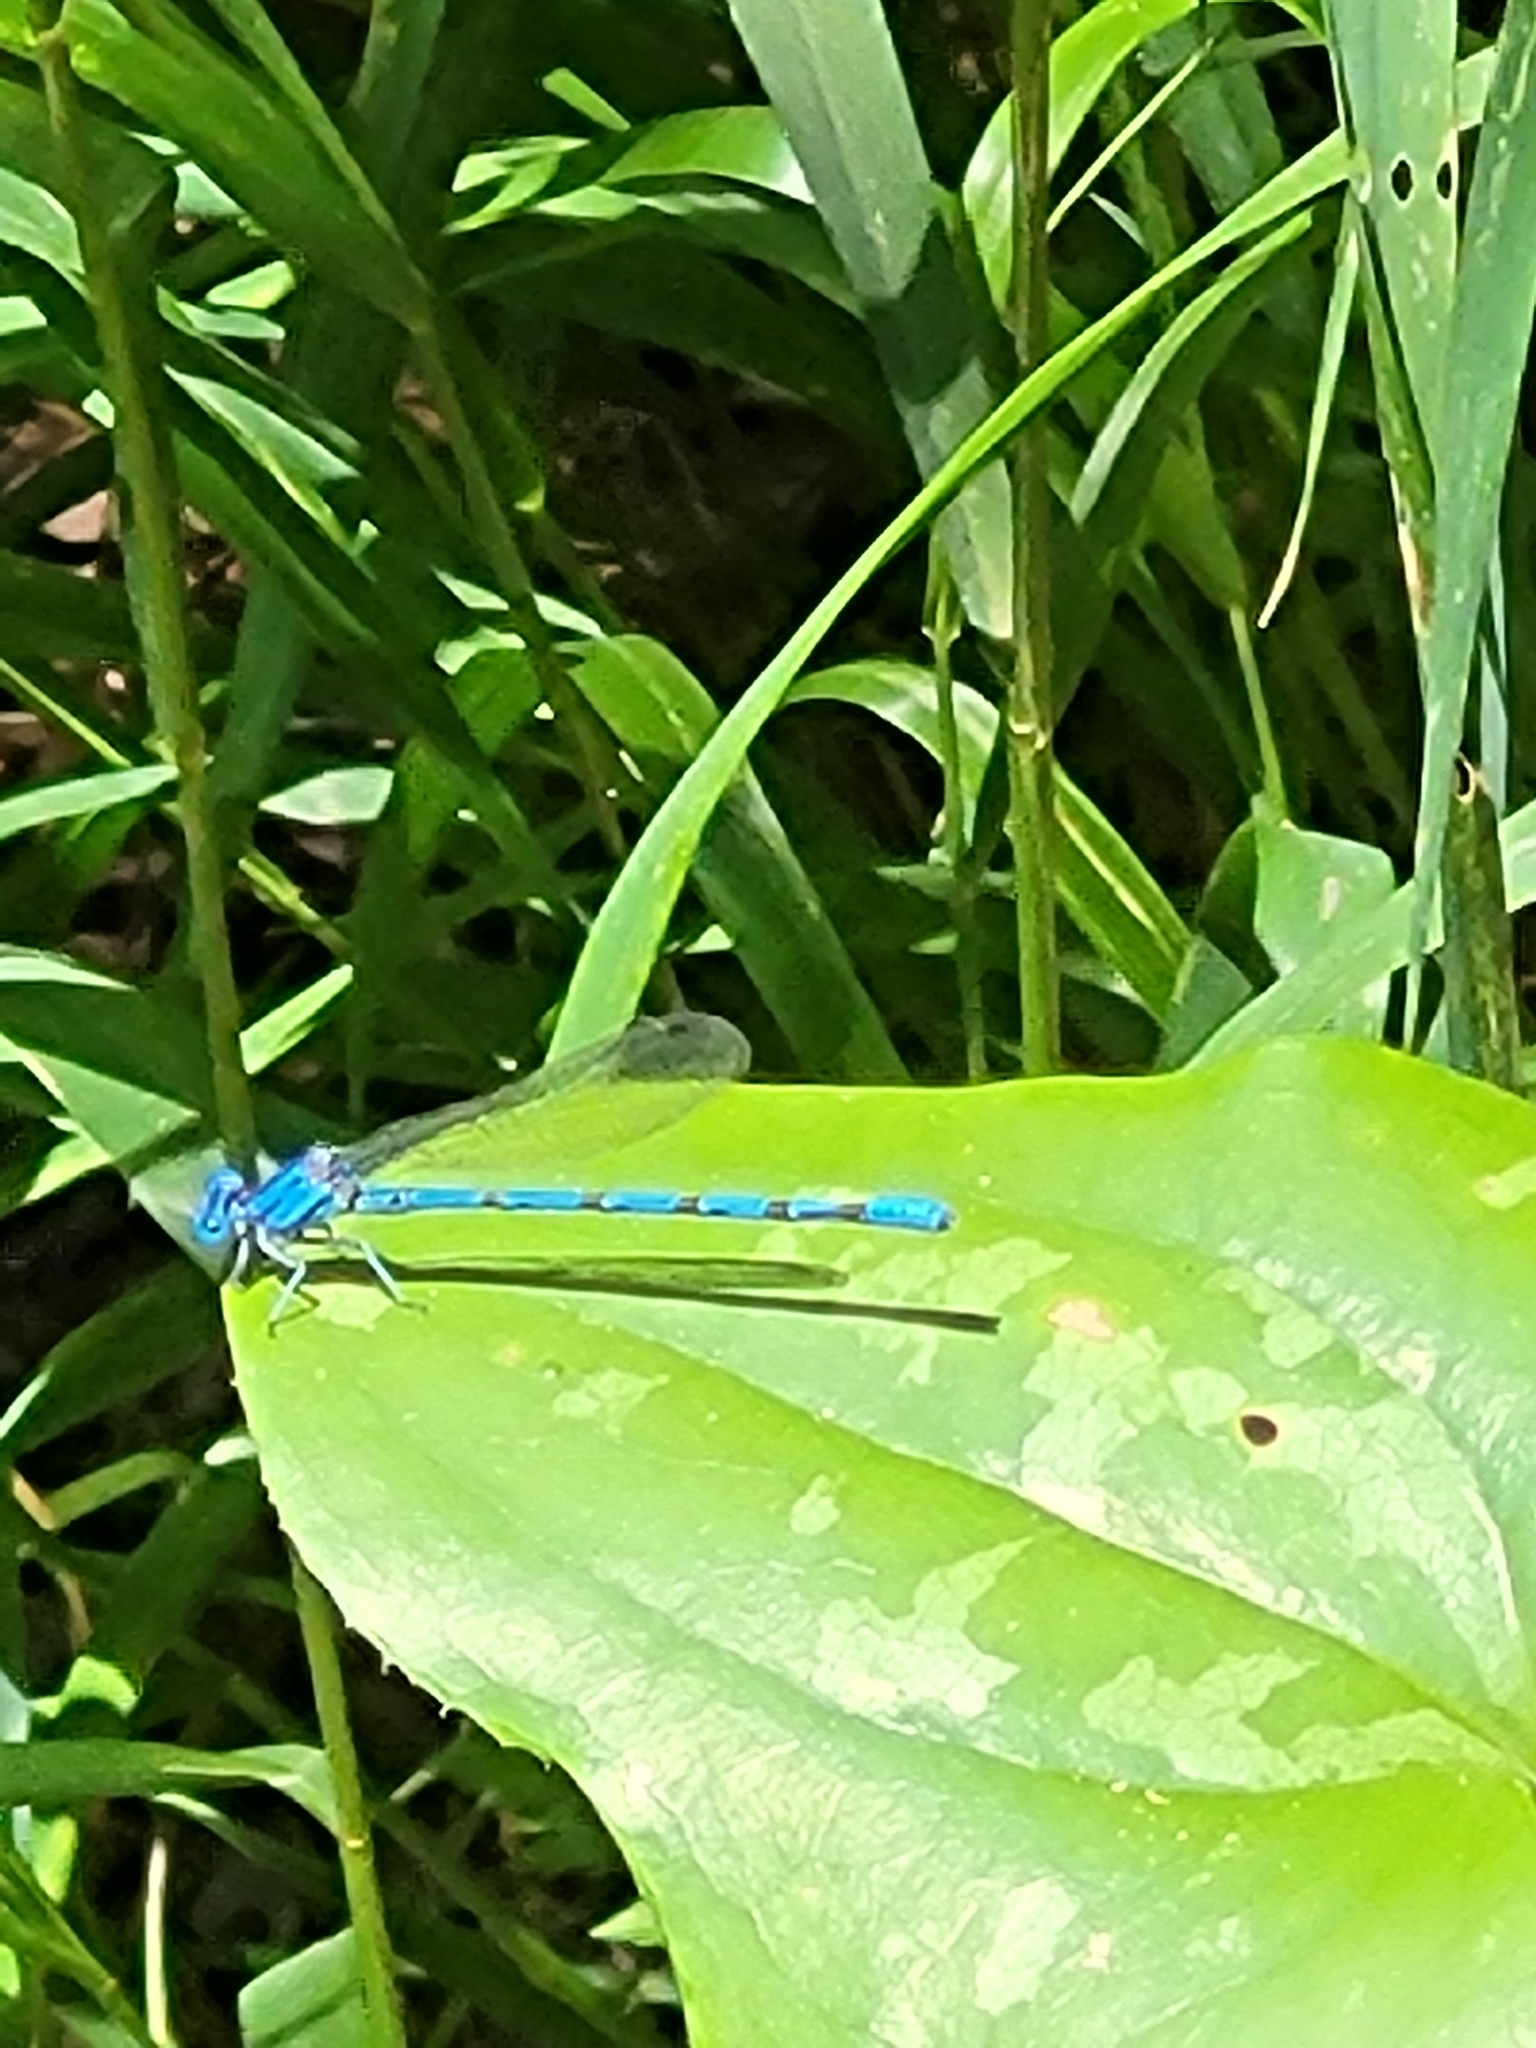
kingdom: Animalia
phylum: Arthropoda
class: Insecta
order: Odonata
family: Coenagrionidae
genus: Argia
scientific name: Argia funebris
